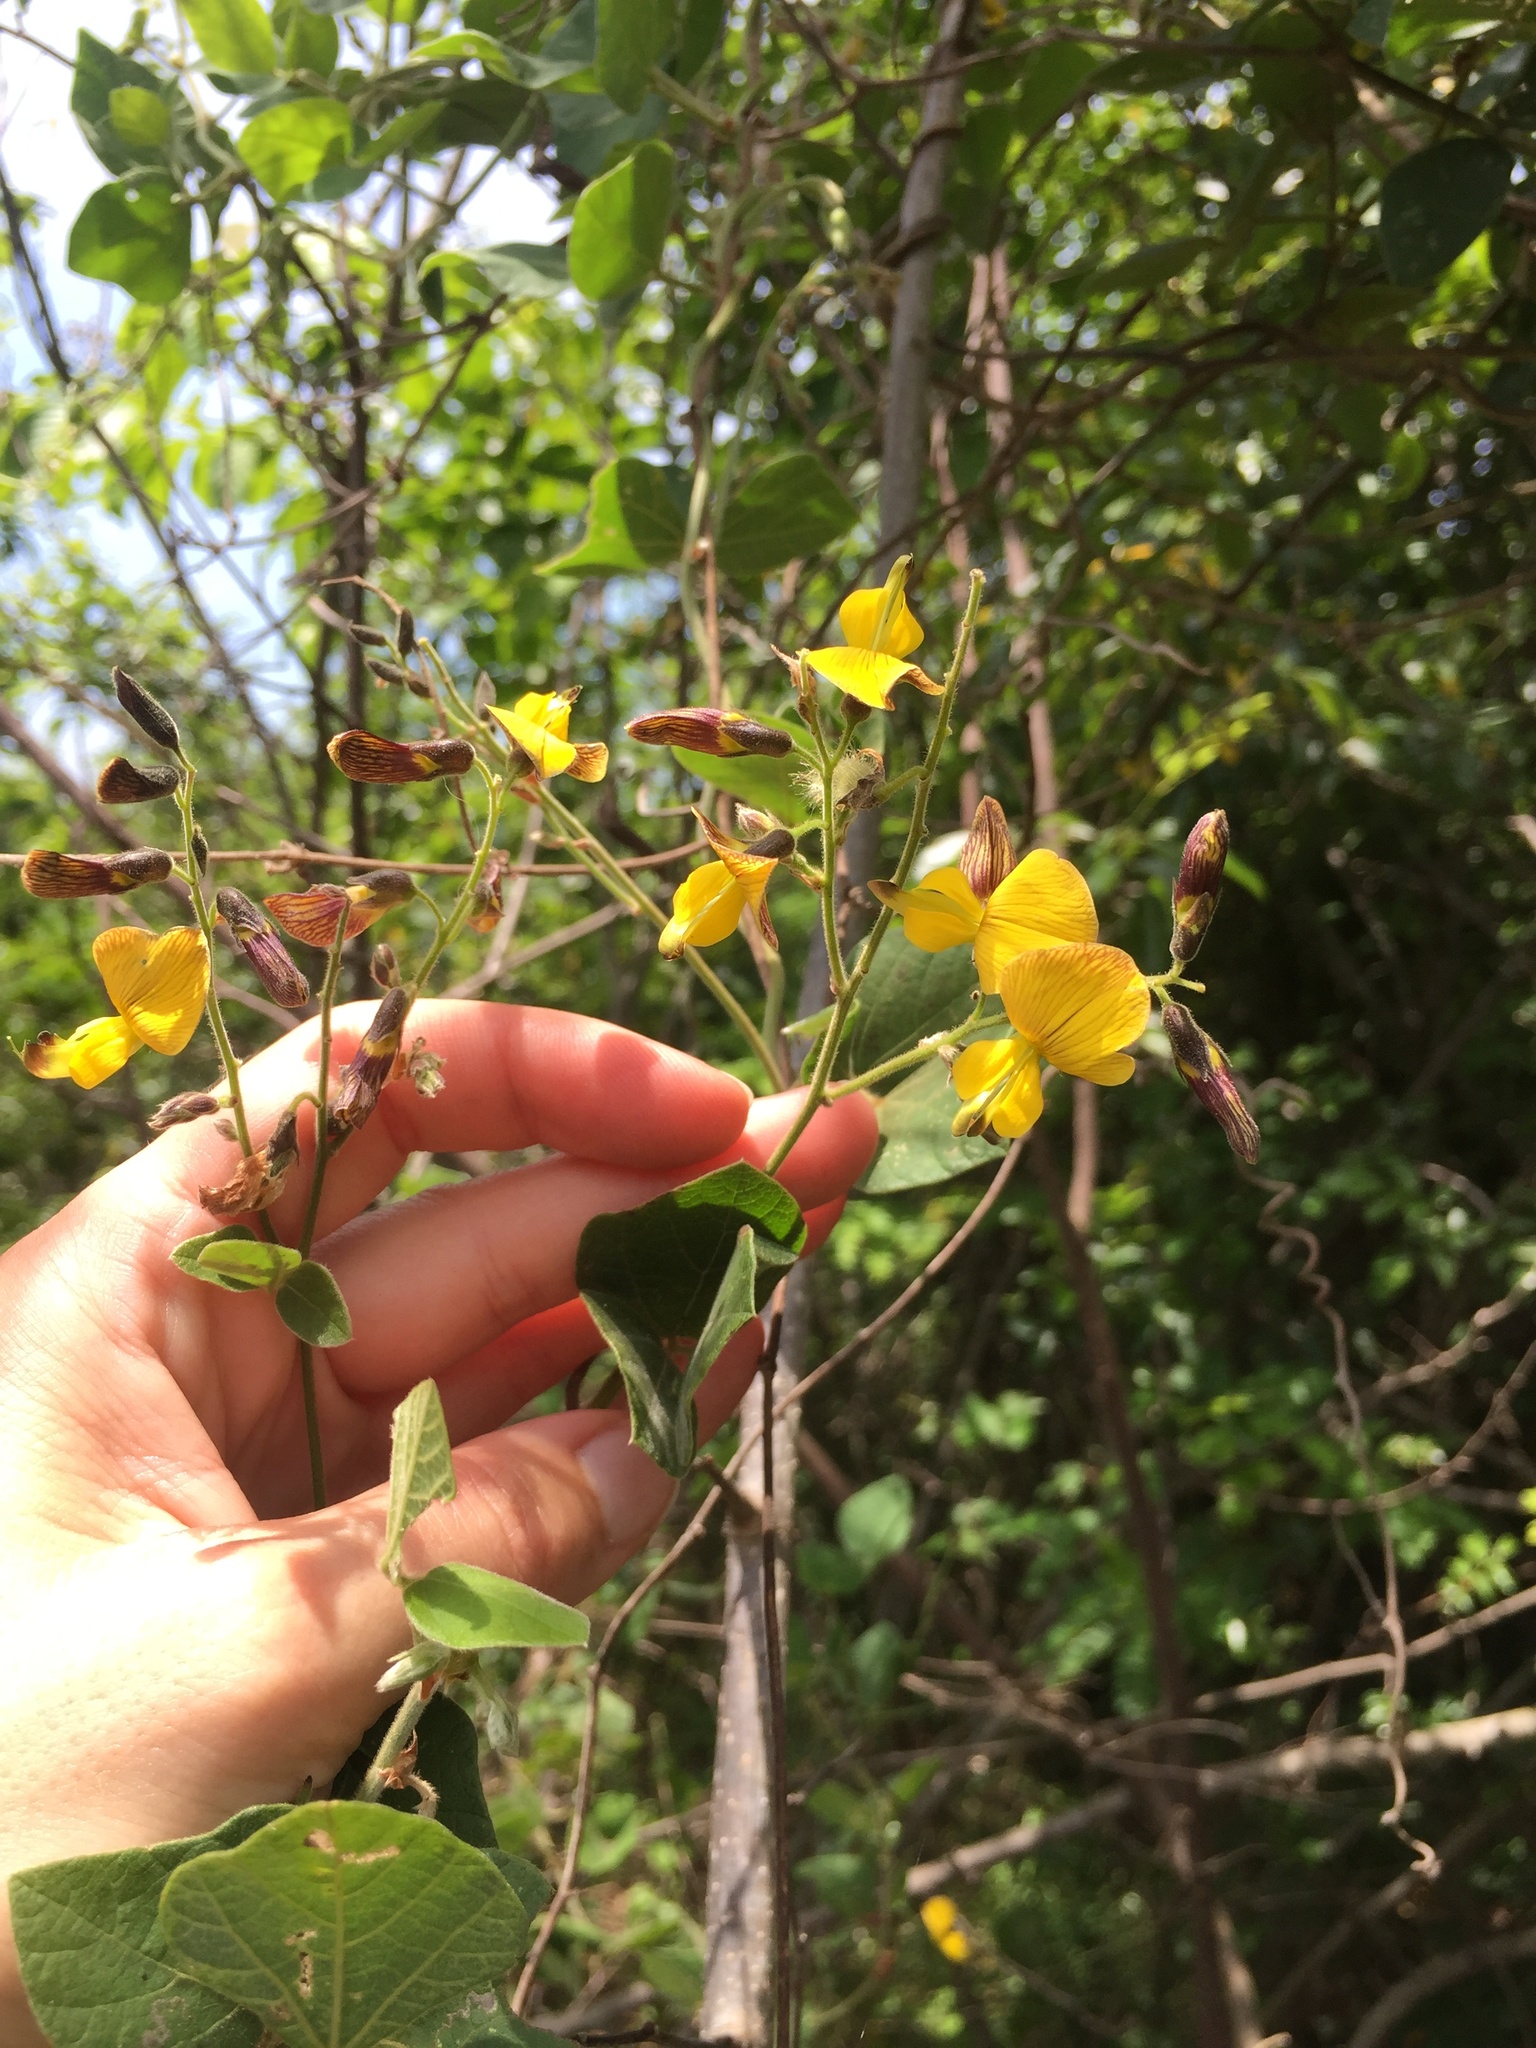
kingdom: Plantae
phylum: Tracheophyta
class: Magnoliopsida
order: Fabales
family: Fabaceae
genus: Rhynchosia
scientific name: Rhynchosia caribaea
